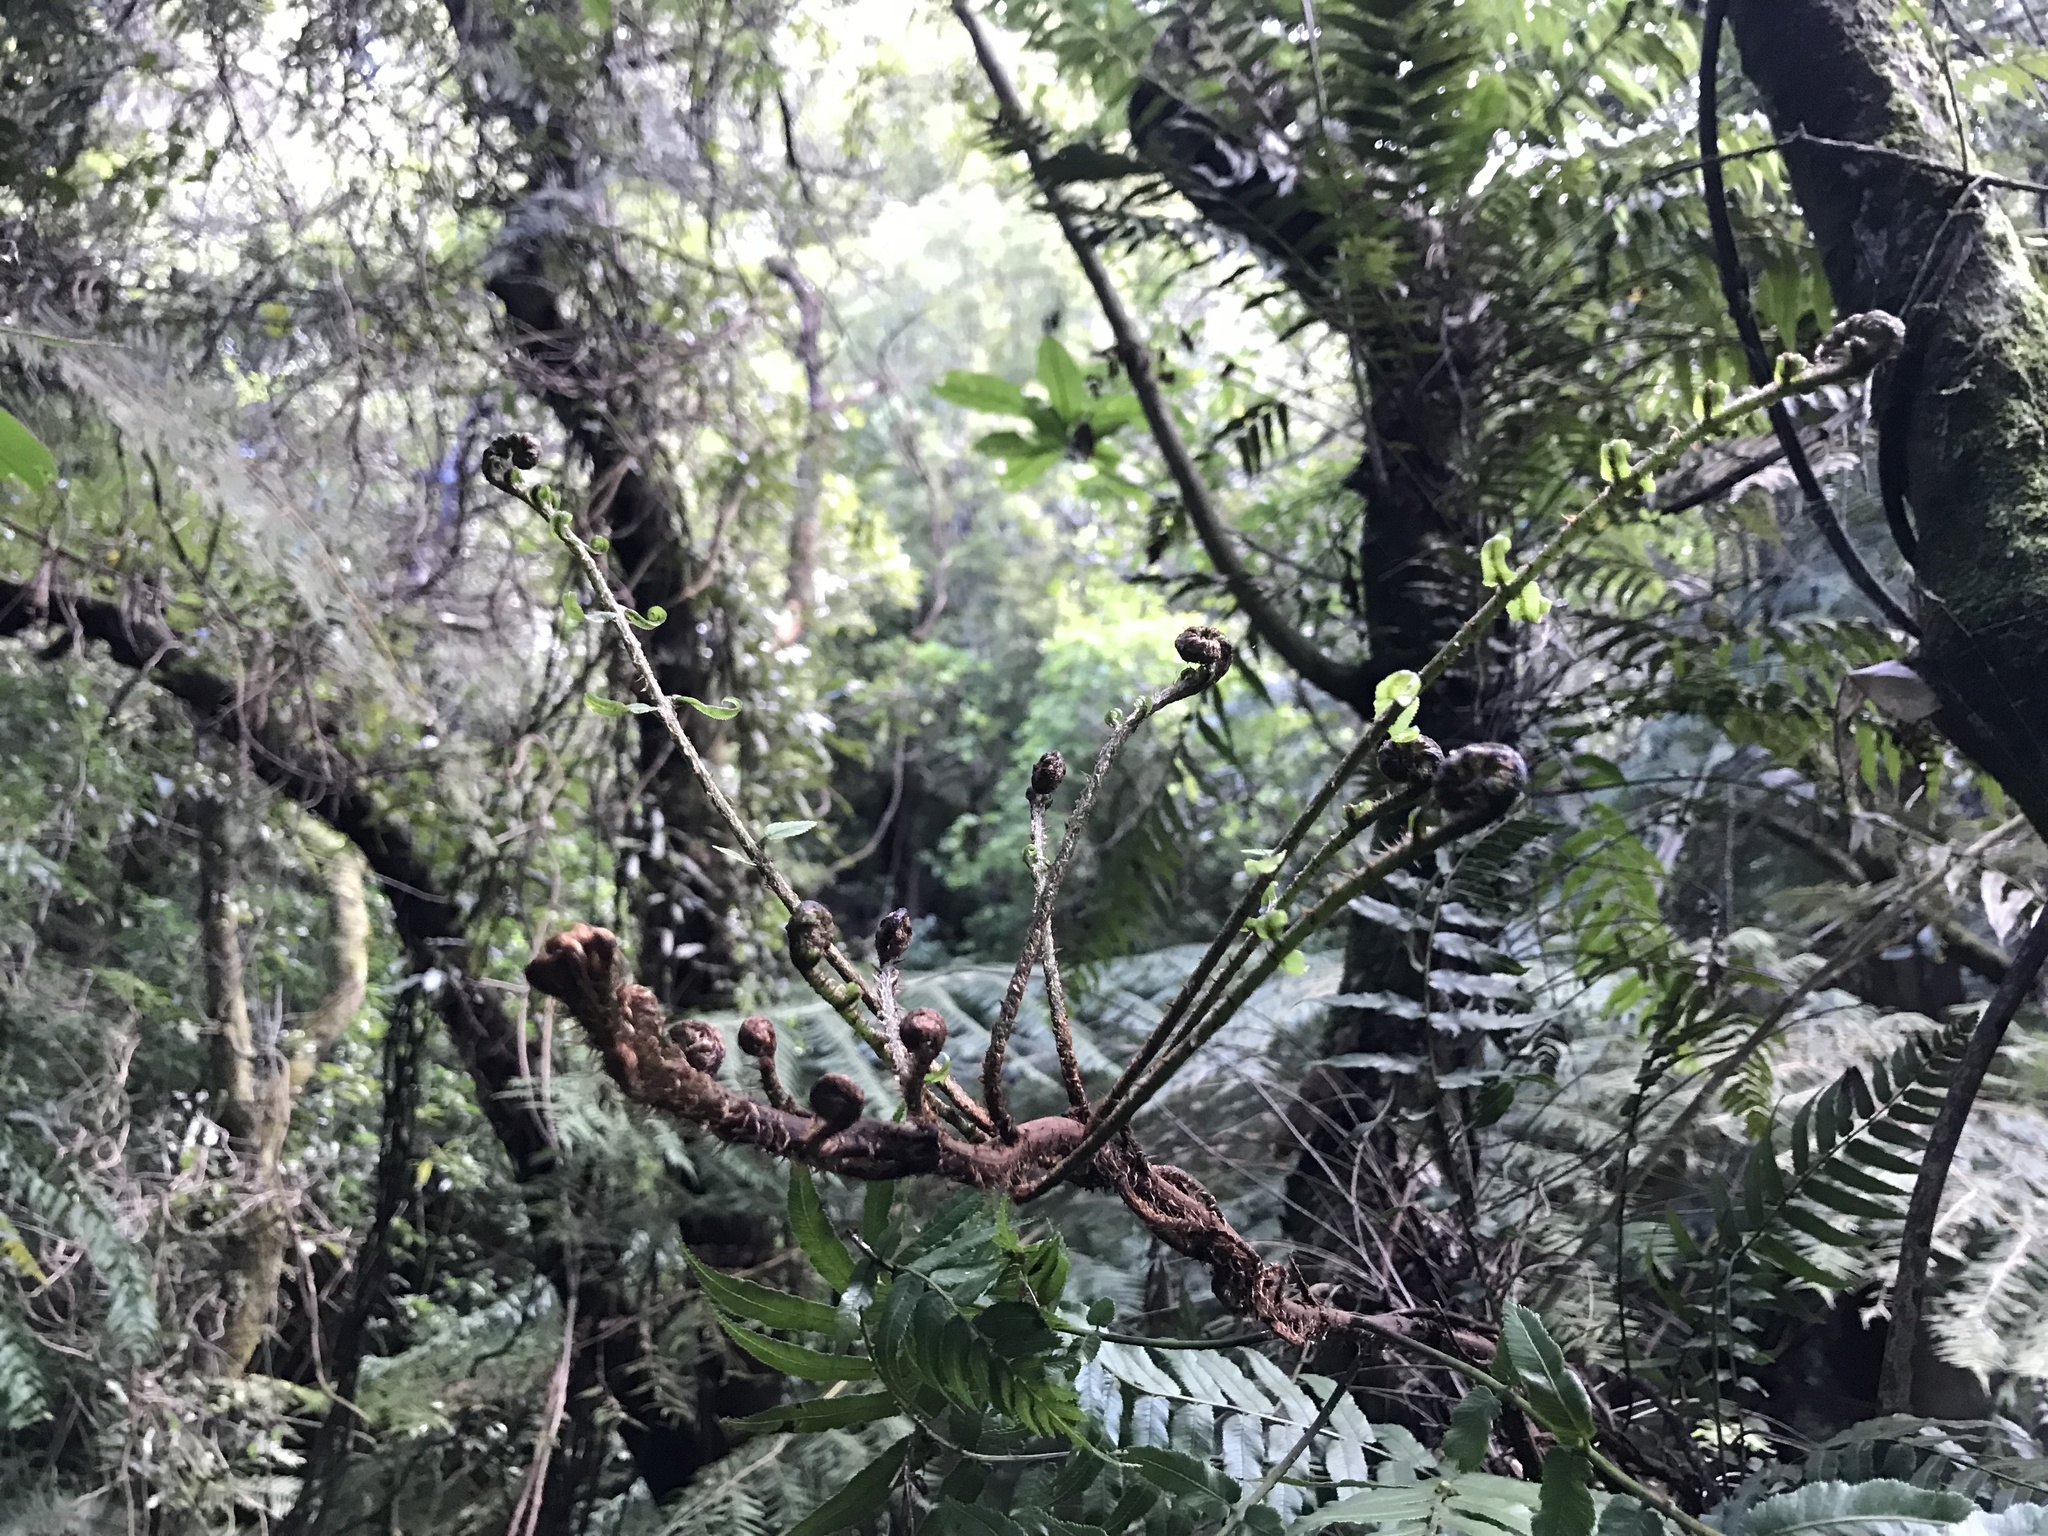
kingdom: Plantae
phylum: Tracheophyta
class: Polypodiopsida
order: Polypodiales
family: Blechnaceae
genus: Icarus
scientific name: Icarus filiformis
